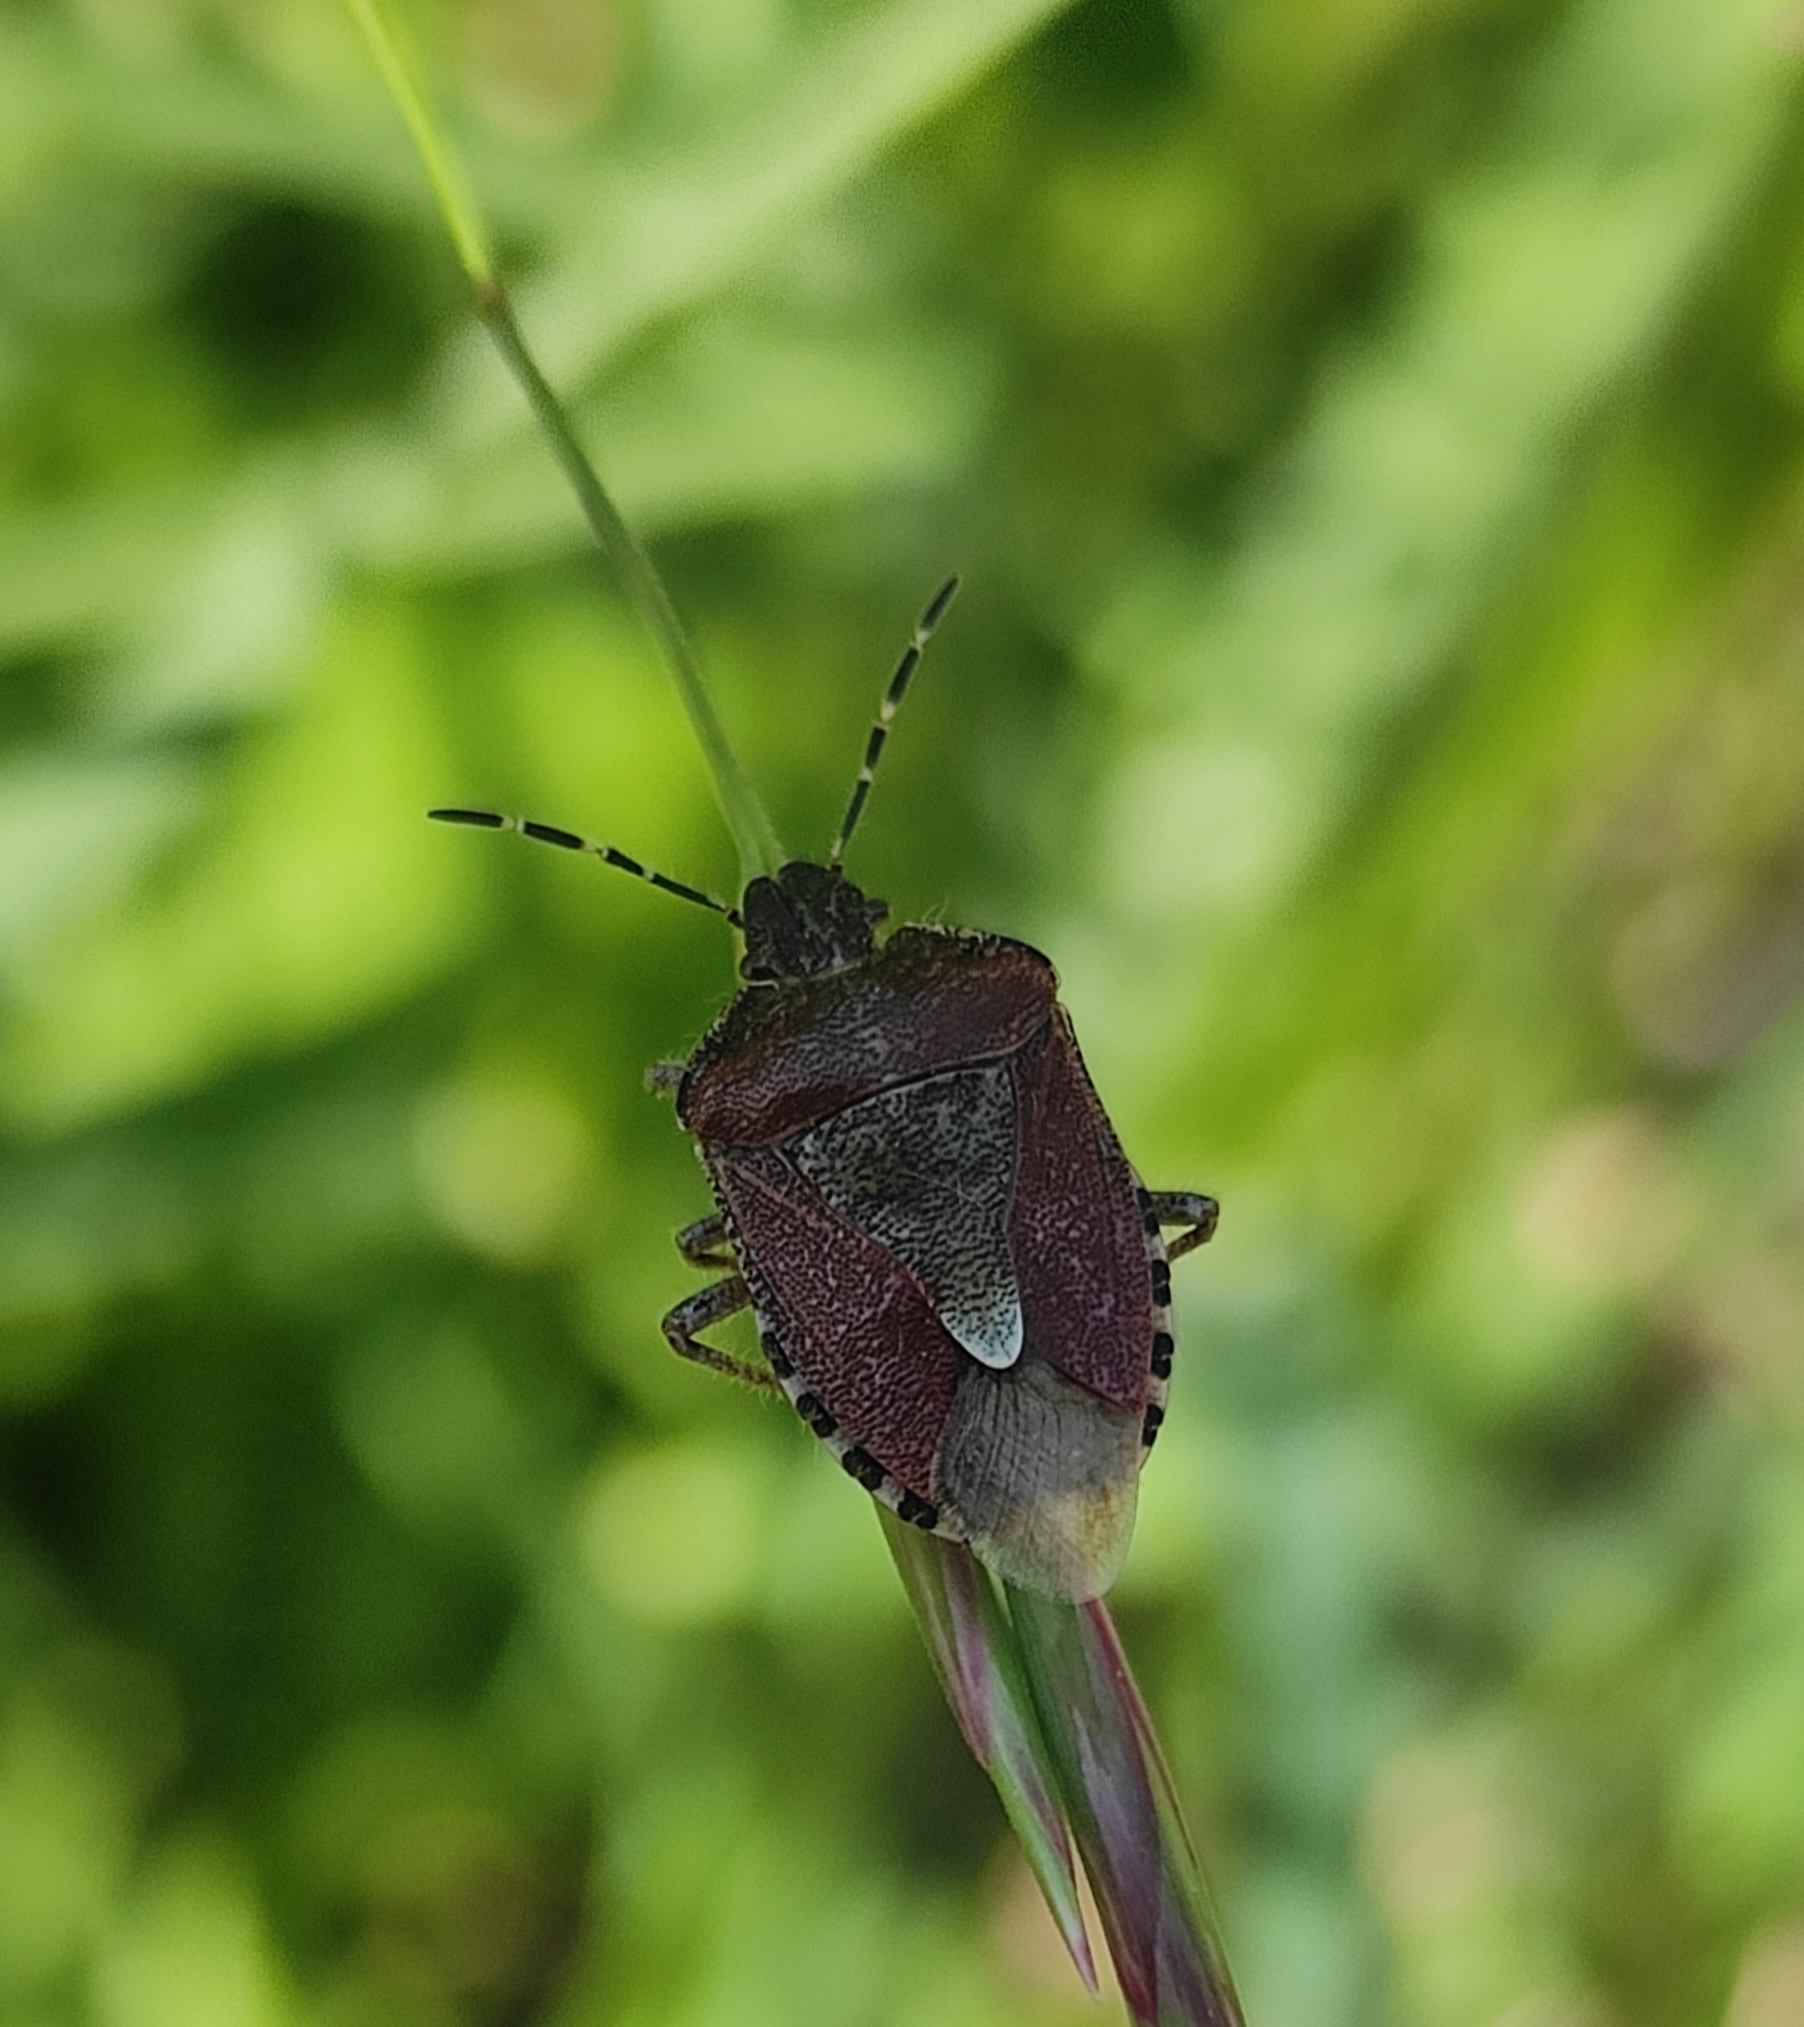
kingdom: Animalia
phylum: Arthropoda
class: Insecta
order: Hemiptera
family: Pentatomidae
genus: Dolycoris
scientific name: Dolycoris baccarum
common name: Sloe bug
